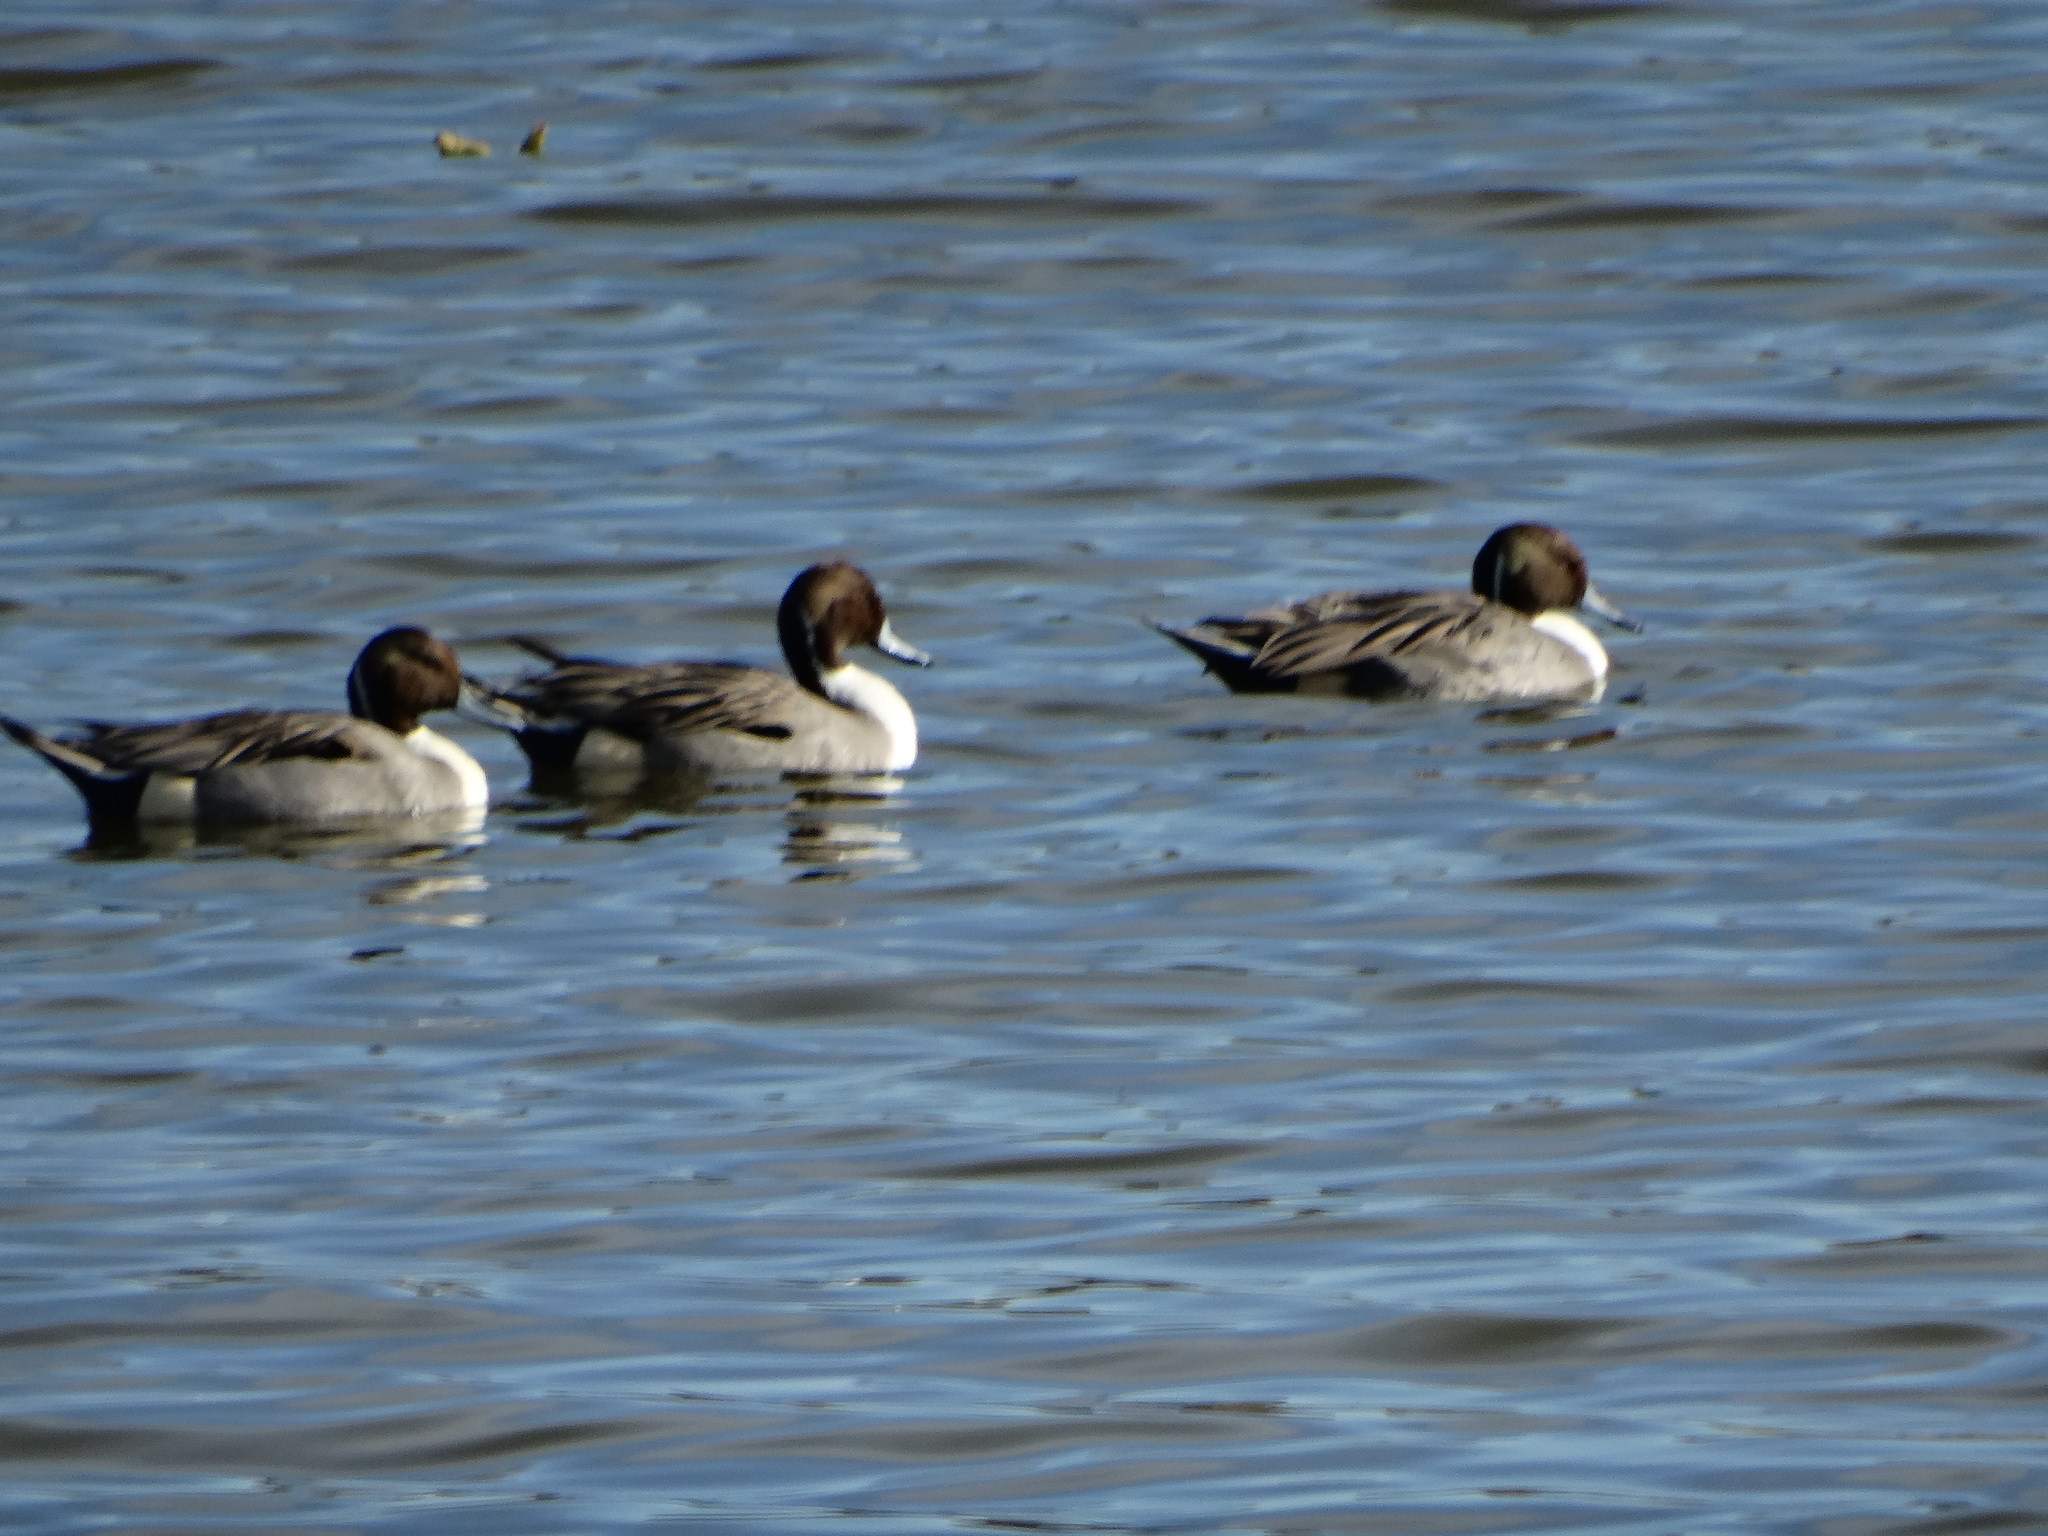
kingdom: Animalia
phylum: Chordata
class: Aves
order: Anseriformes
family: Anatidae
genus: Anas
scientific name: Anas acuta
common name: Northern pintail
